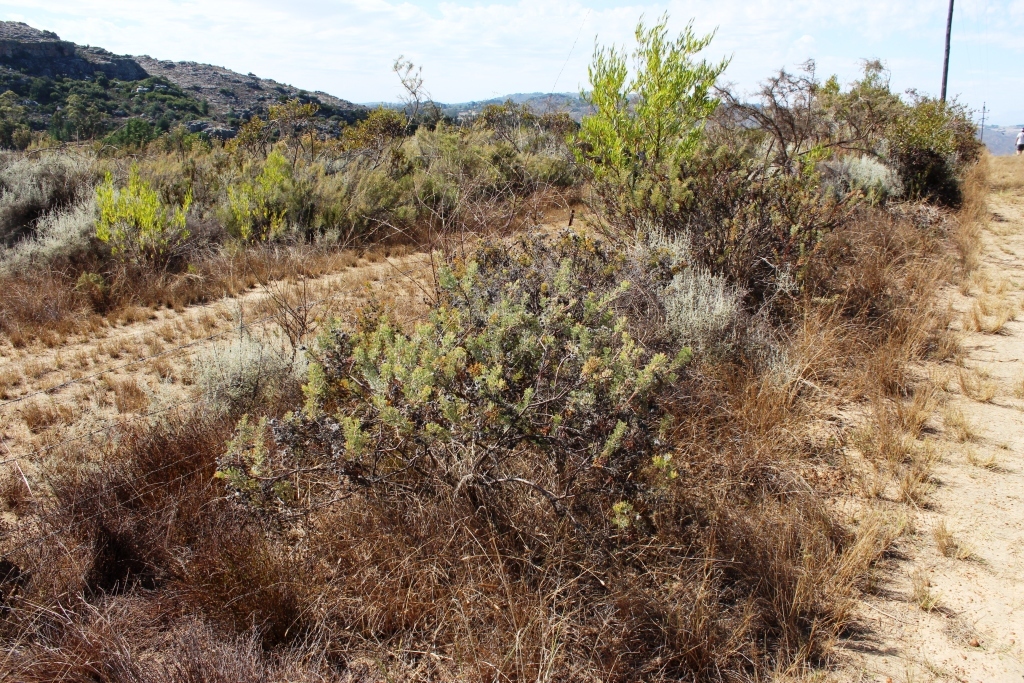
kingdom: Plantae
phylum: Tracheophyta
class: Magnoliopsida
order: Proteales
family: Proteaceae
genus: Serruria
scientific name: Serruria aitonii
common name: Marshmallow spiderhead
